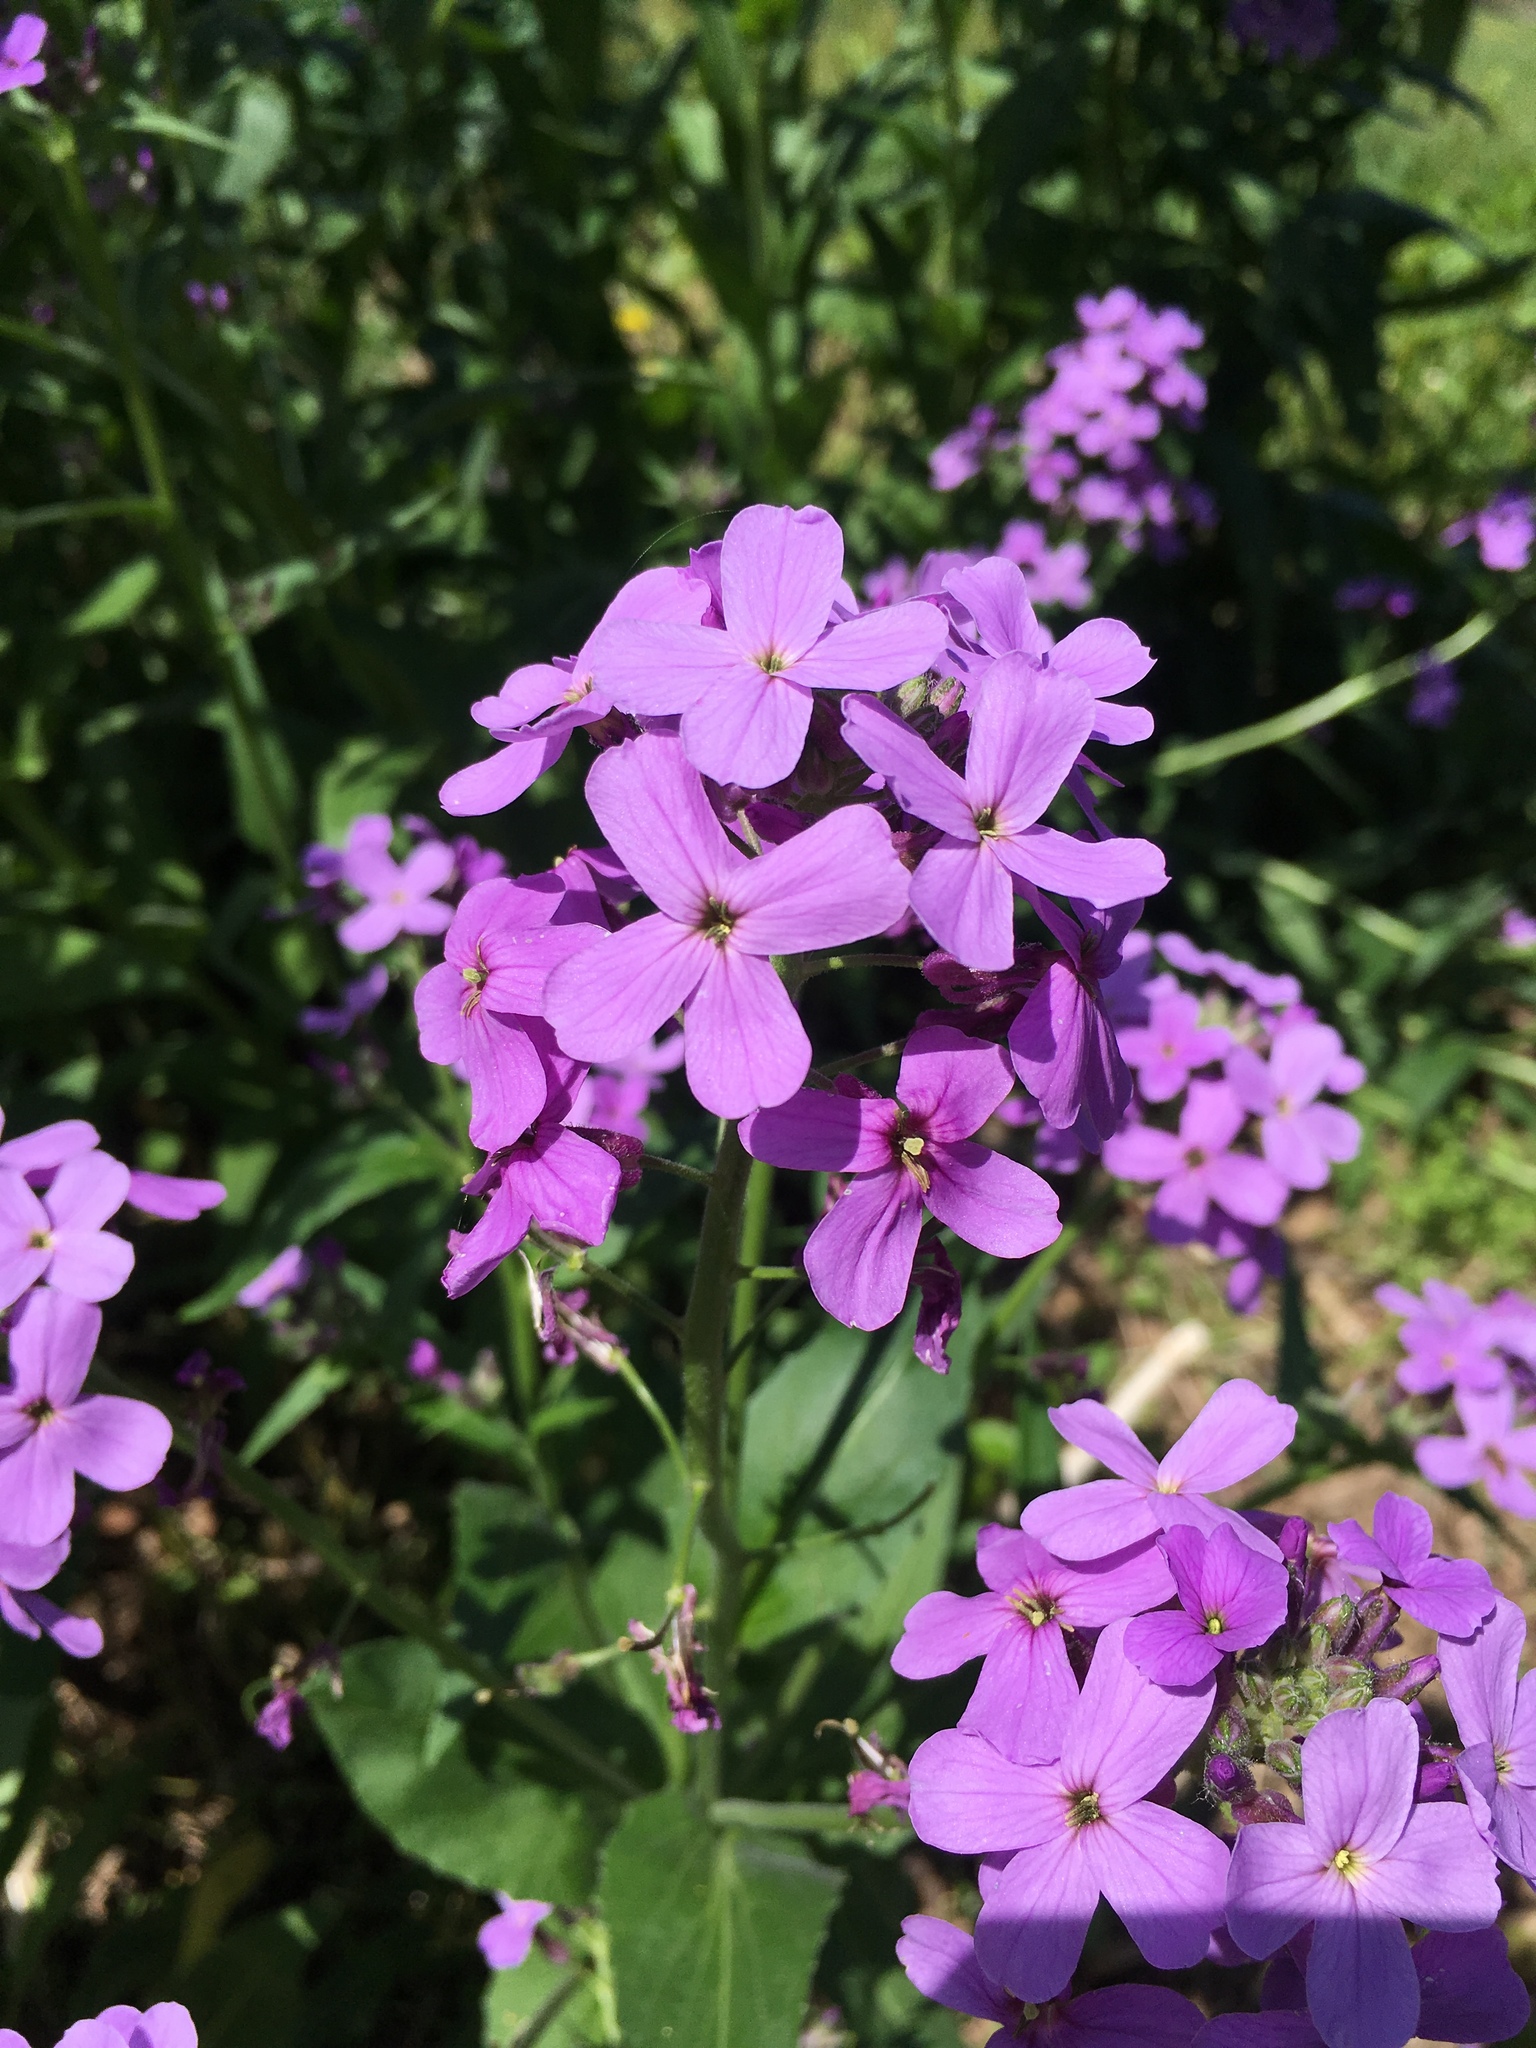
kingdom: Plantae
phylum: Tracheophyta
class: Magnoliopsida
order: Brassicales
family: Brassicaceae
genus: Hesperis
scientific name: Hesperis matronalis
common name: Dame's-violet
